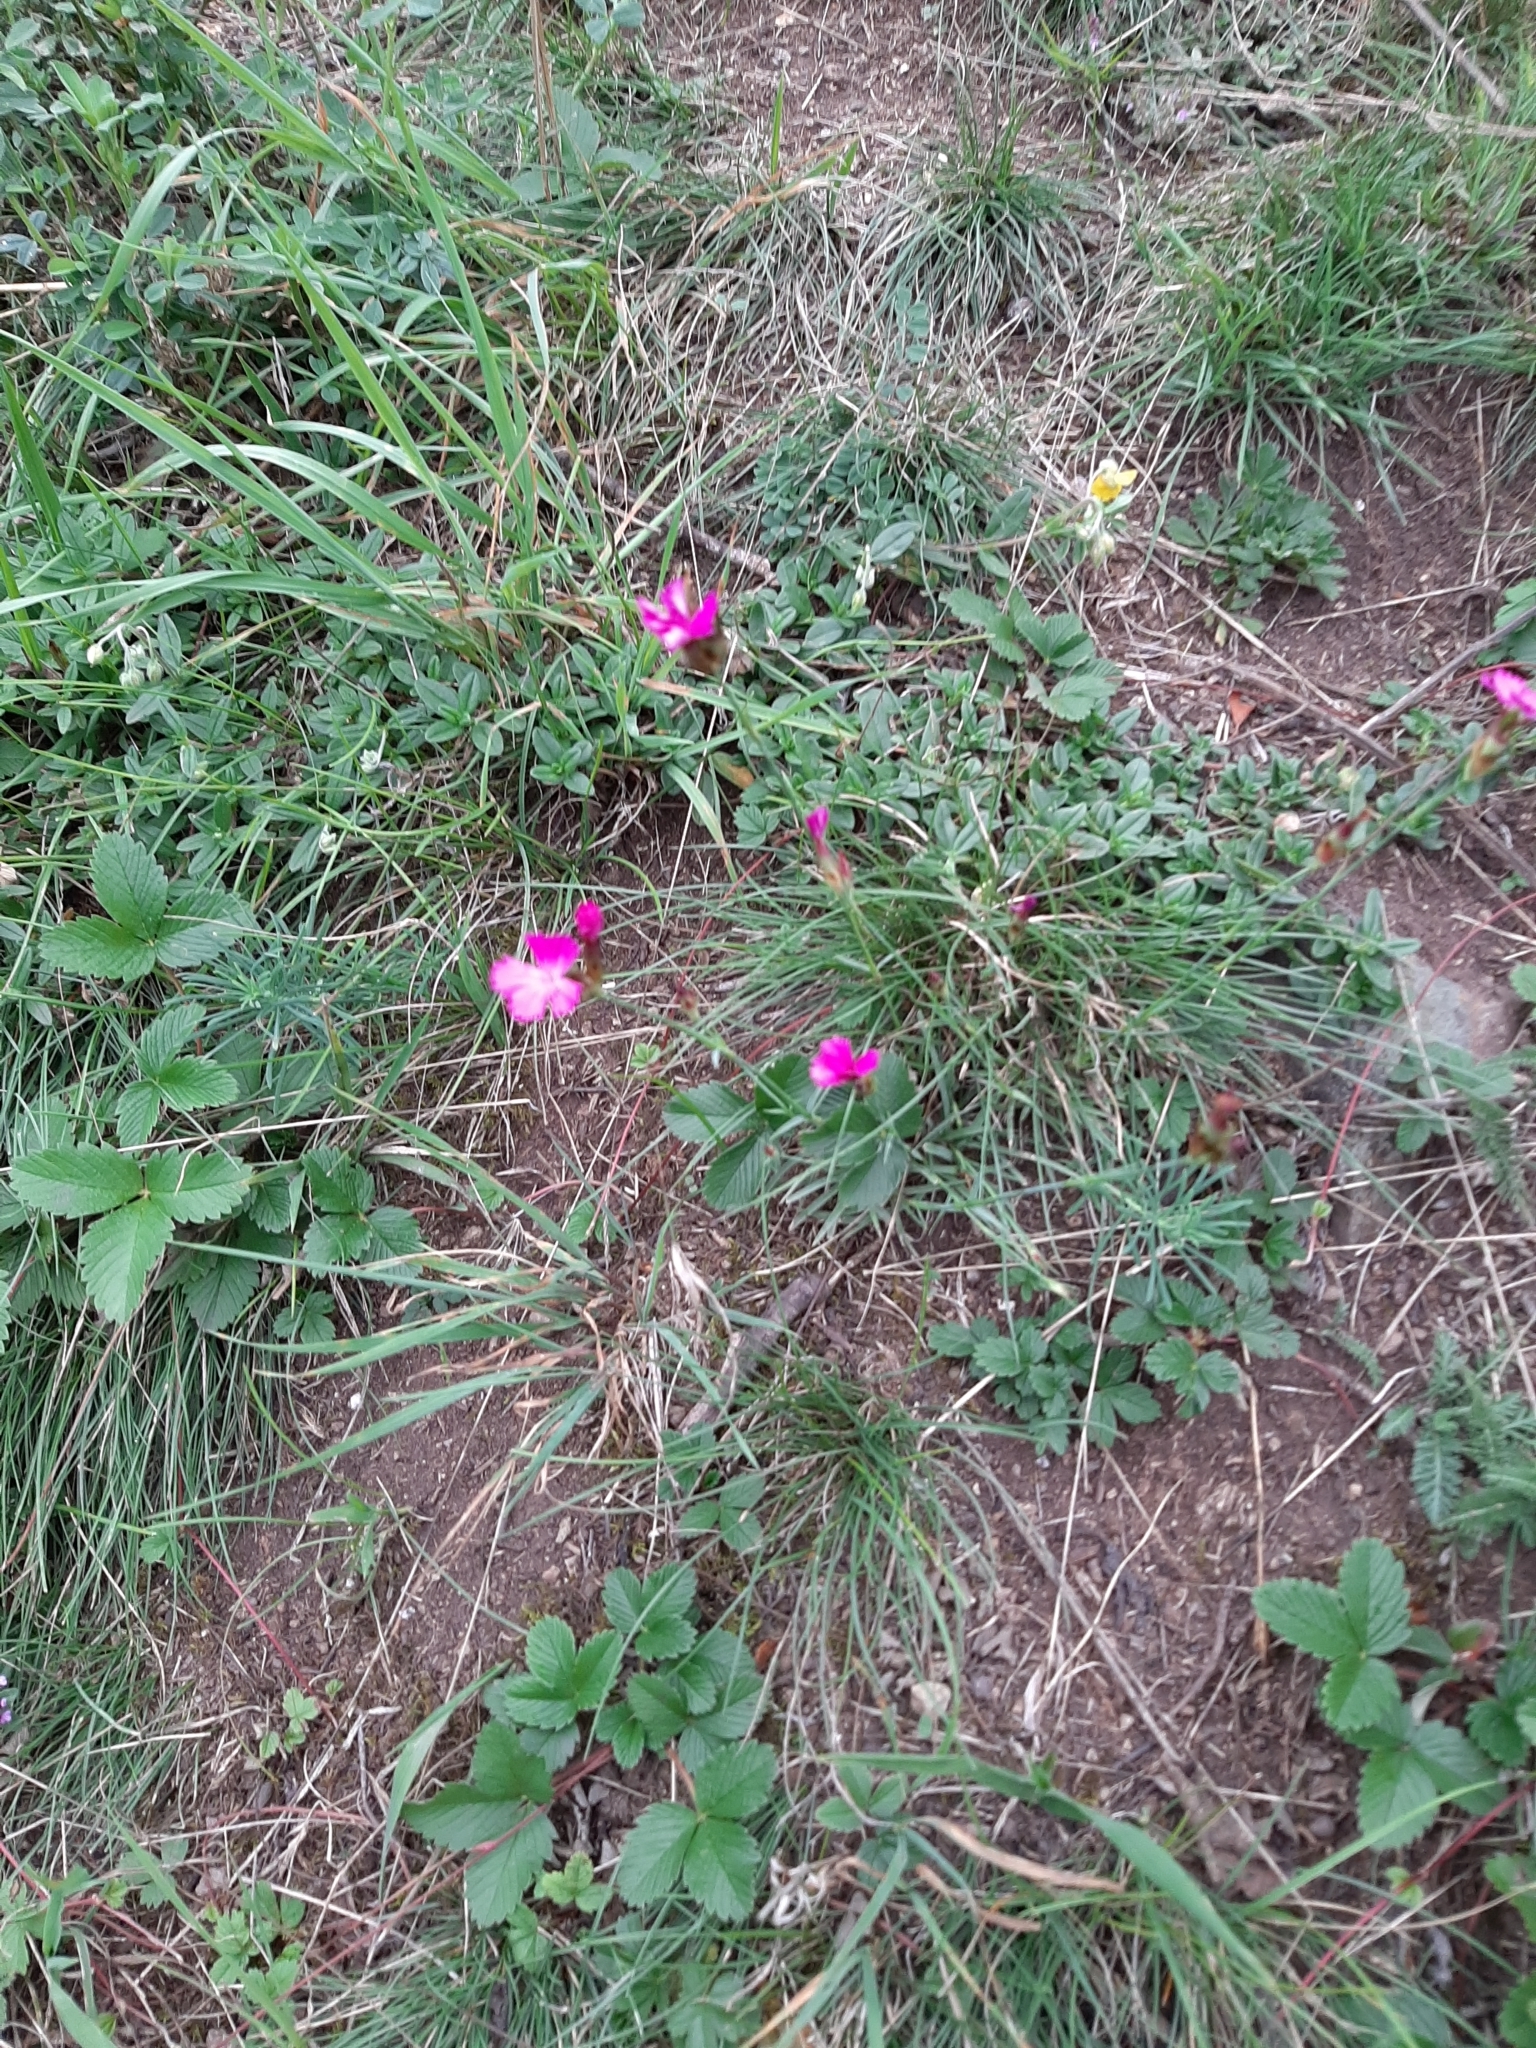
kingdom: Plantae
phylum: Tracheophyta
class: Magnoliopsida
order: Caryophyllales
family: Caryophyllaceae
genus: Dianthus
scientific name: Dianthus carthusianorum
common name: Carthusian pink
